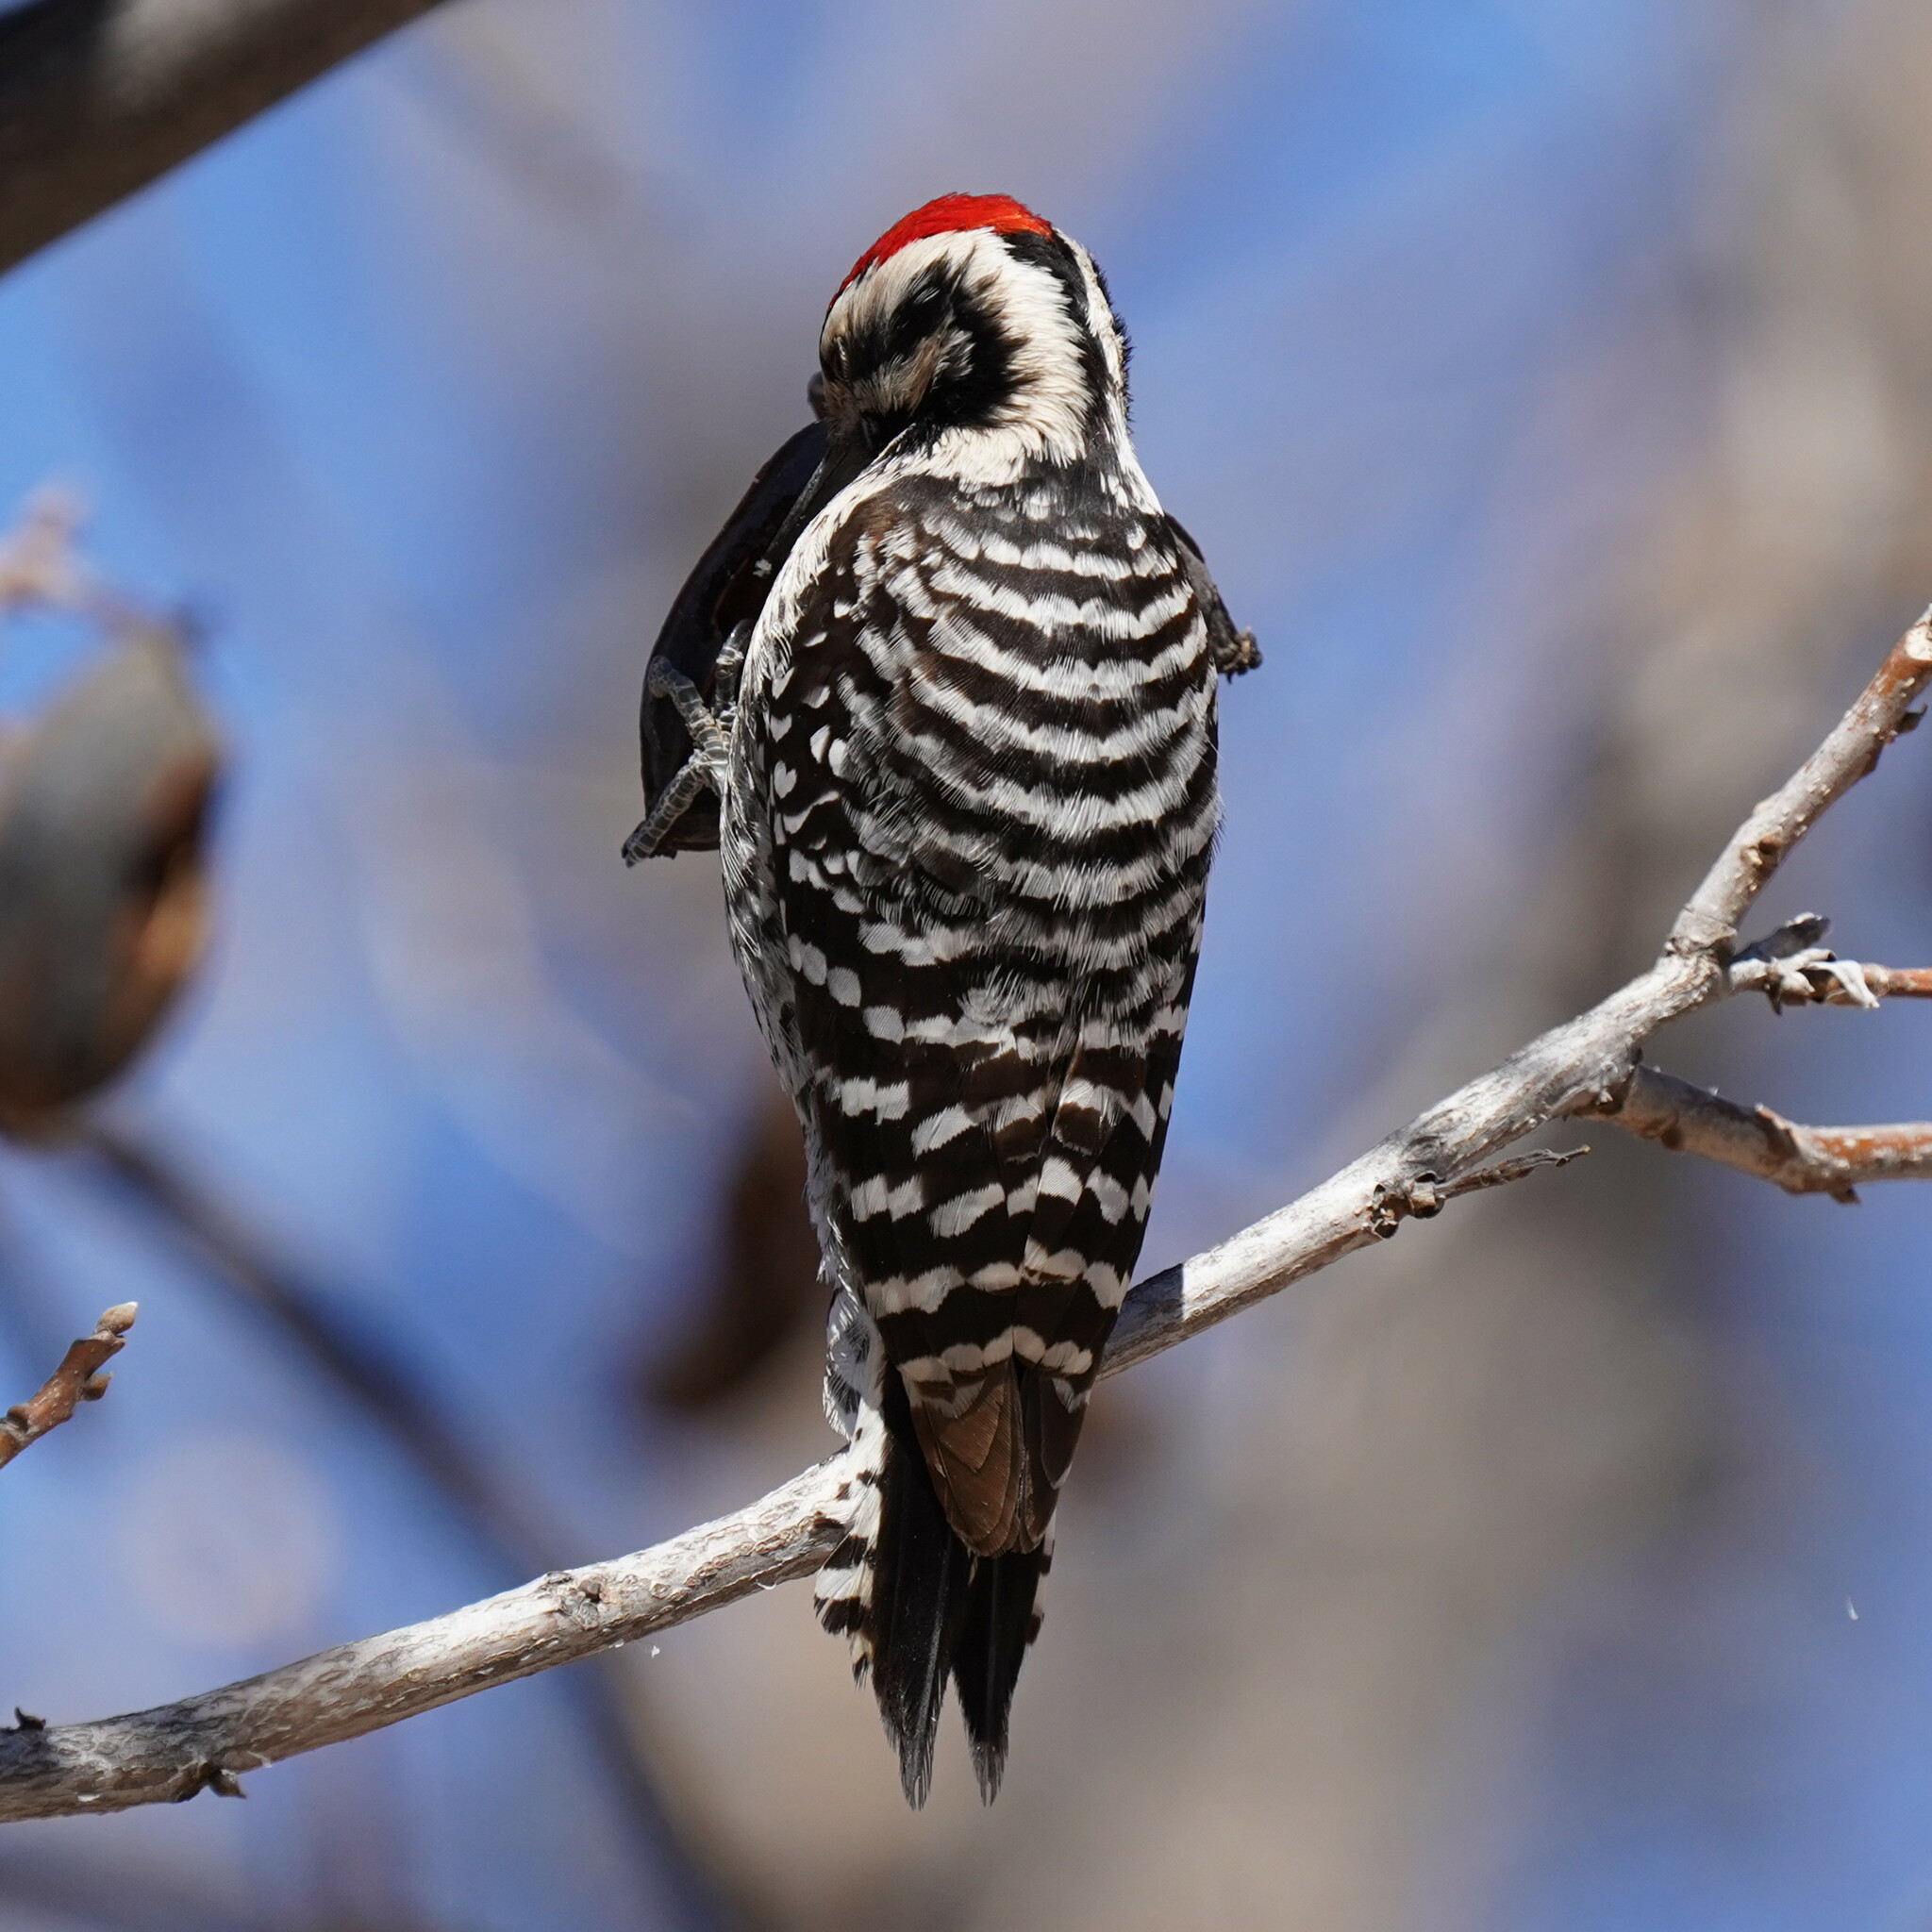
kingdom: Animalia
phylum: Chordata
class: Aves
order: Piciformes
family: Picidae
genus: Dryobates
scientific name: Dryobates scalaris
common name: Ladder-backed woodpecker
